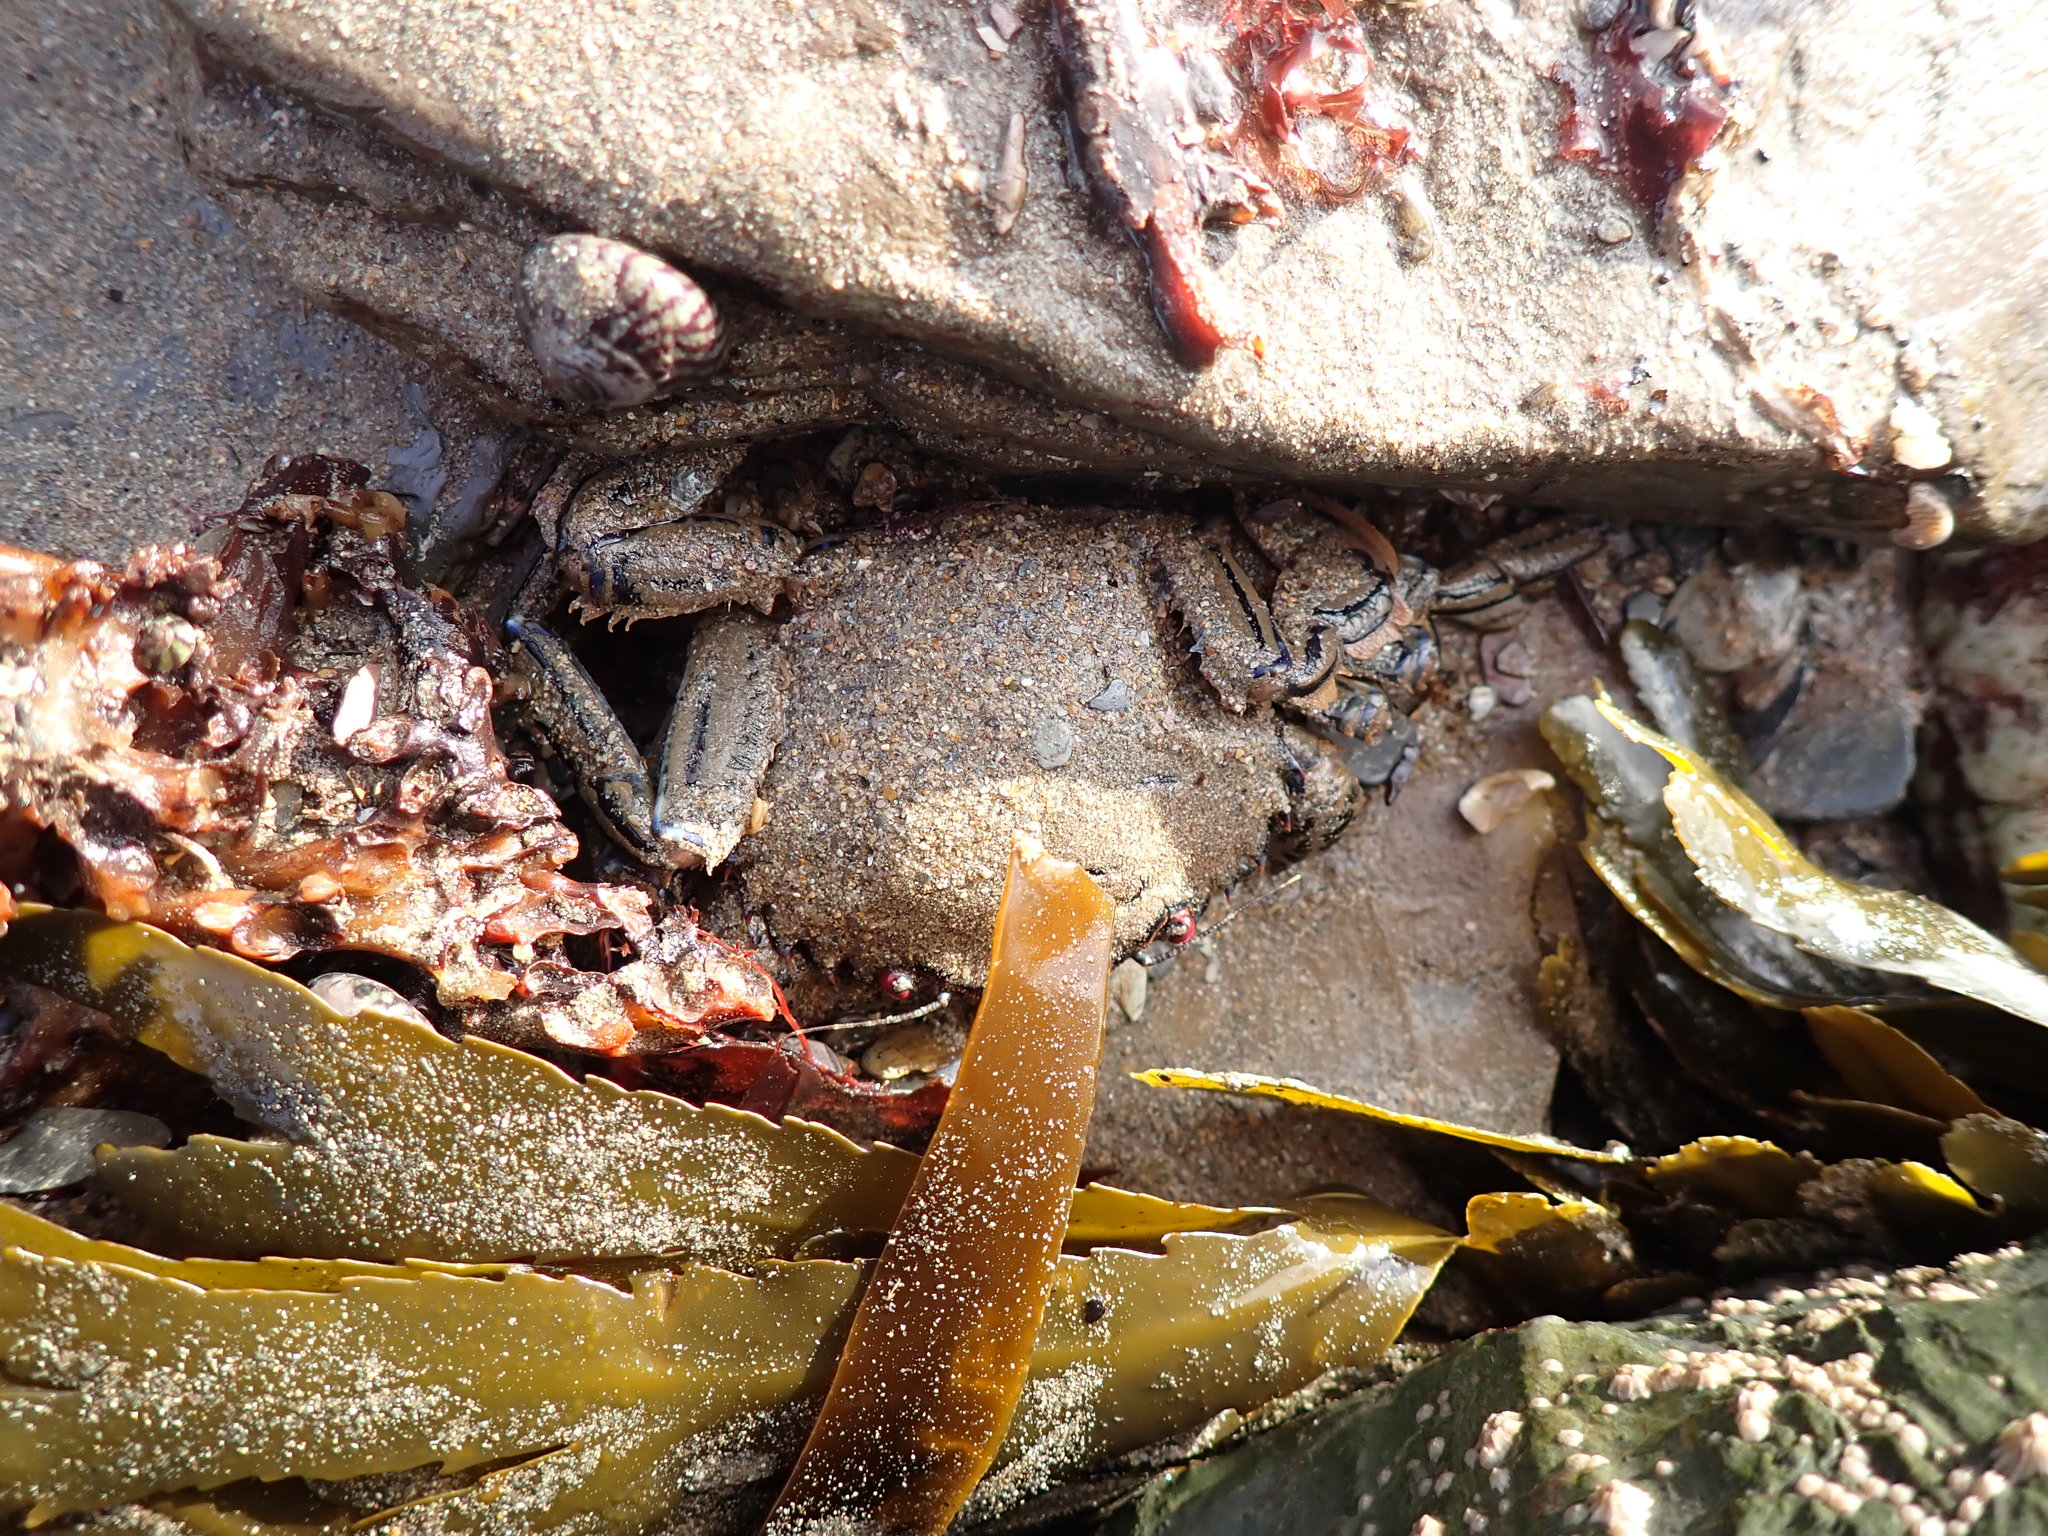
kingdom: Animalia
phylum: Arthropoda
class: Malacostraca
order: Decapoda
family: Polybiidae
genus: Necora
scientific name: Necora puber
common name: Velvet swimming crab
